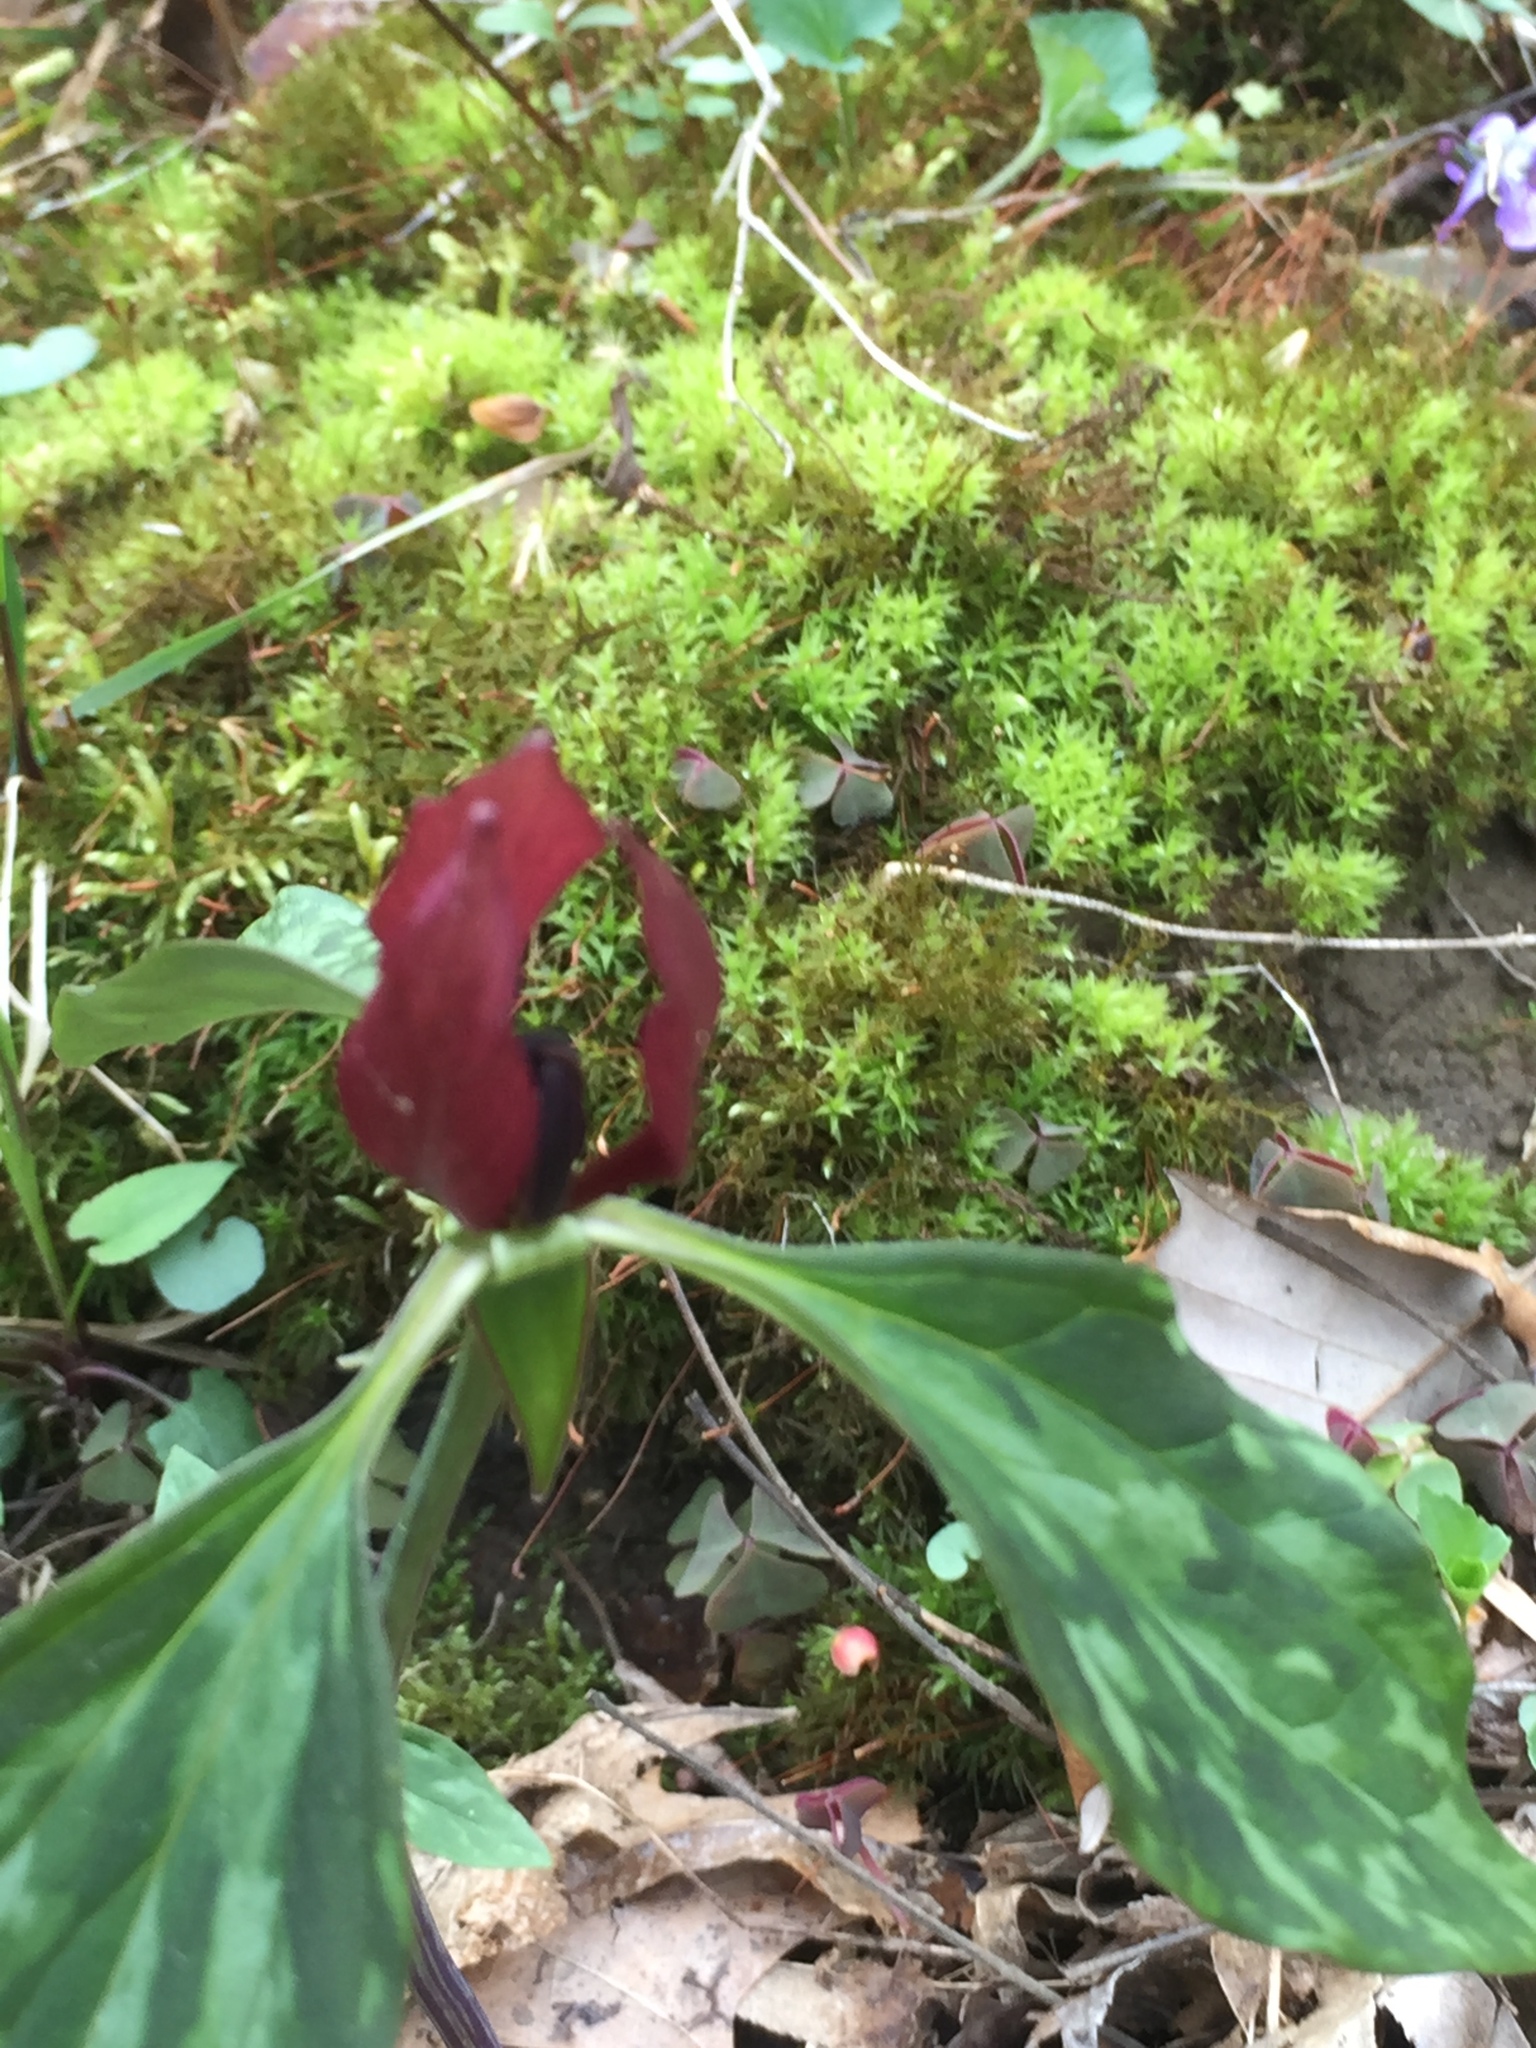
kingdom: Plantae
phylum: Tracheophyta
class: Liliopsida
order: Liliales
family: Melanthiaceae
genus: Trillium
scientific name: Trillium recurvatum
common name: Bloody butcher
